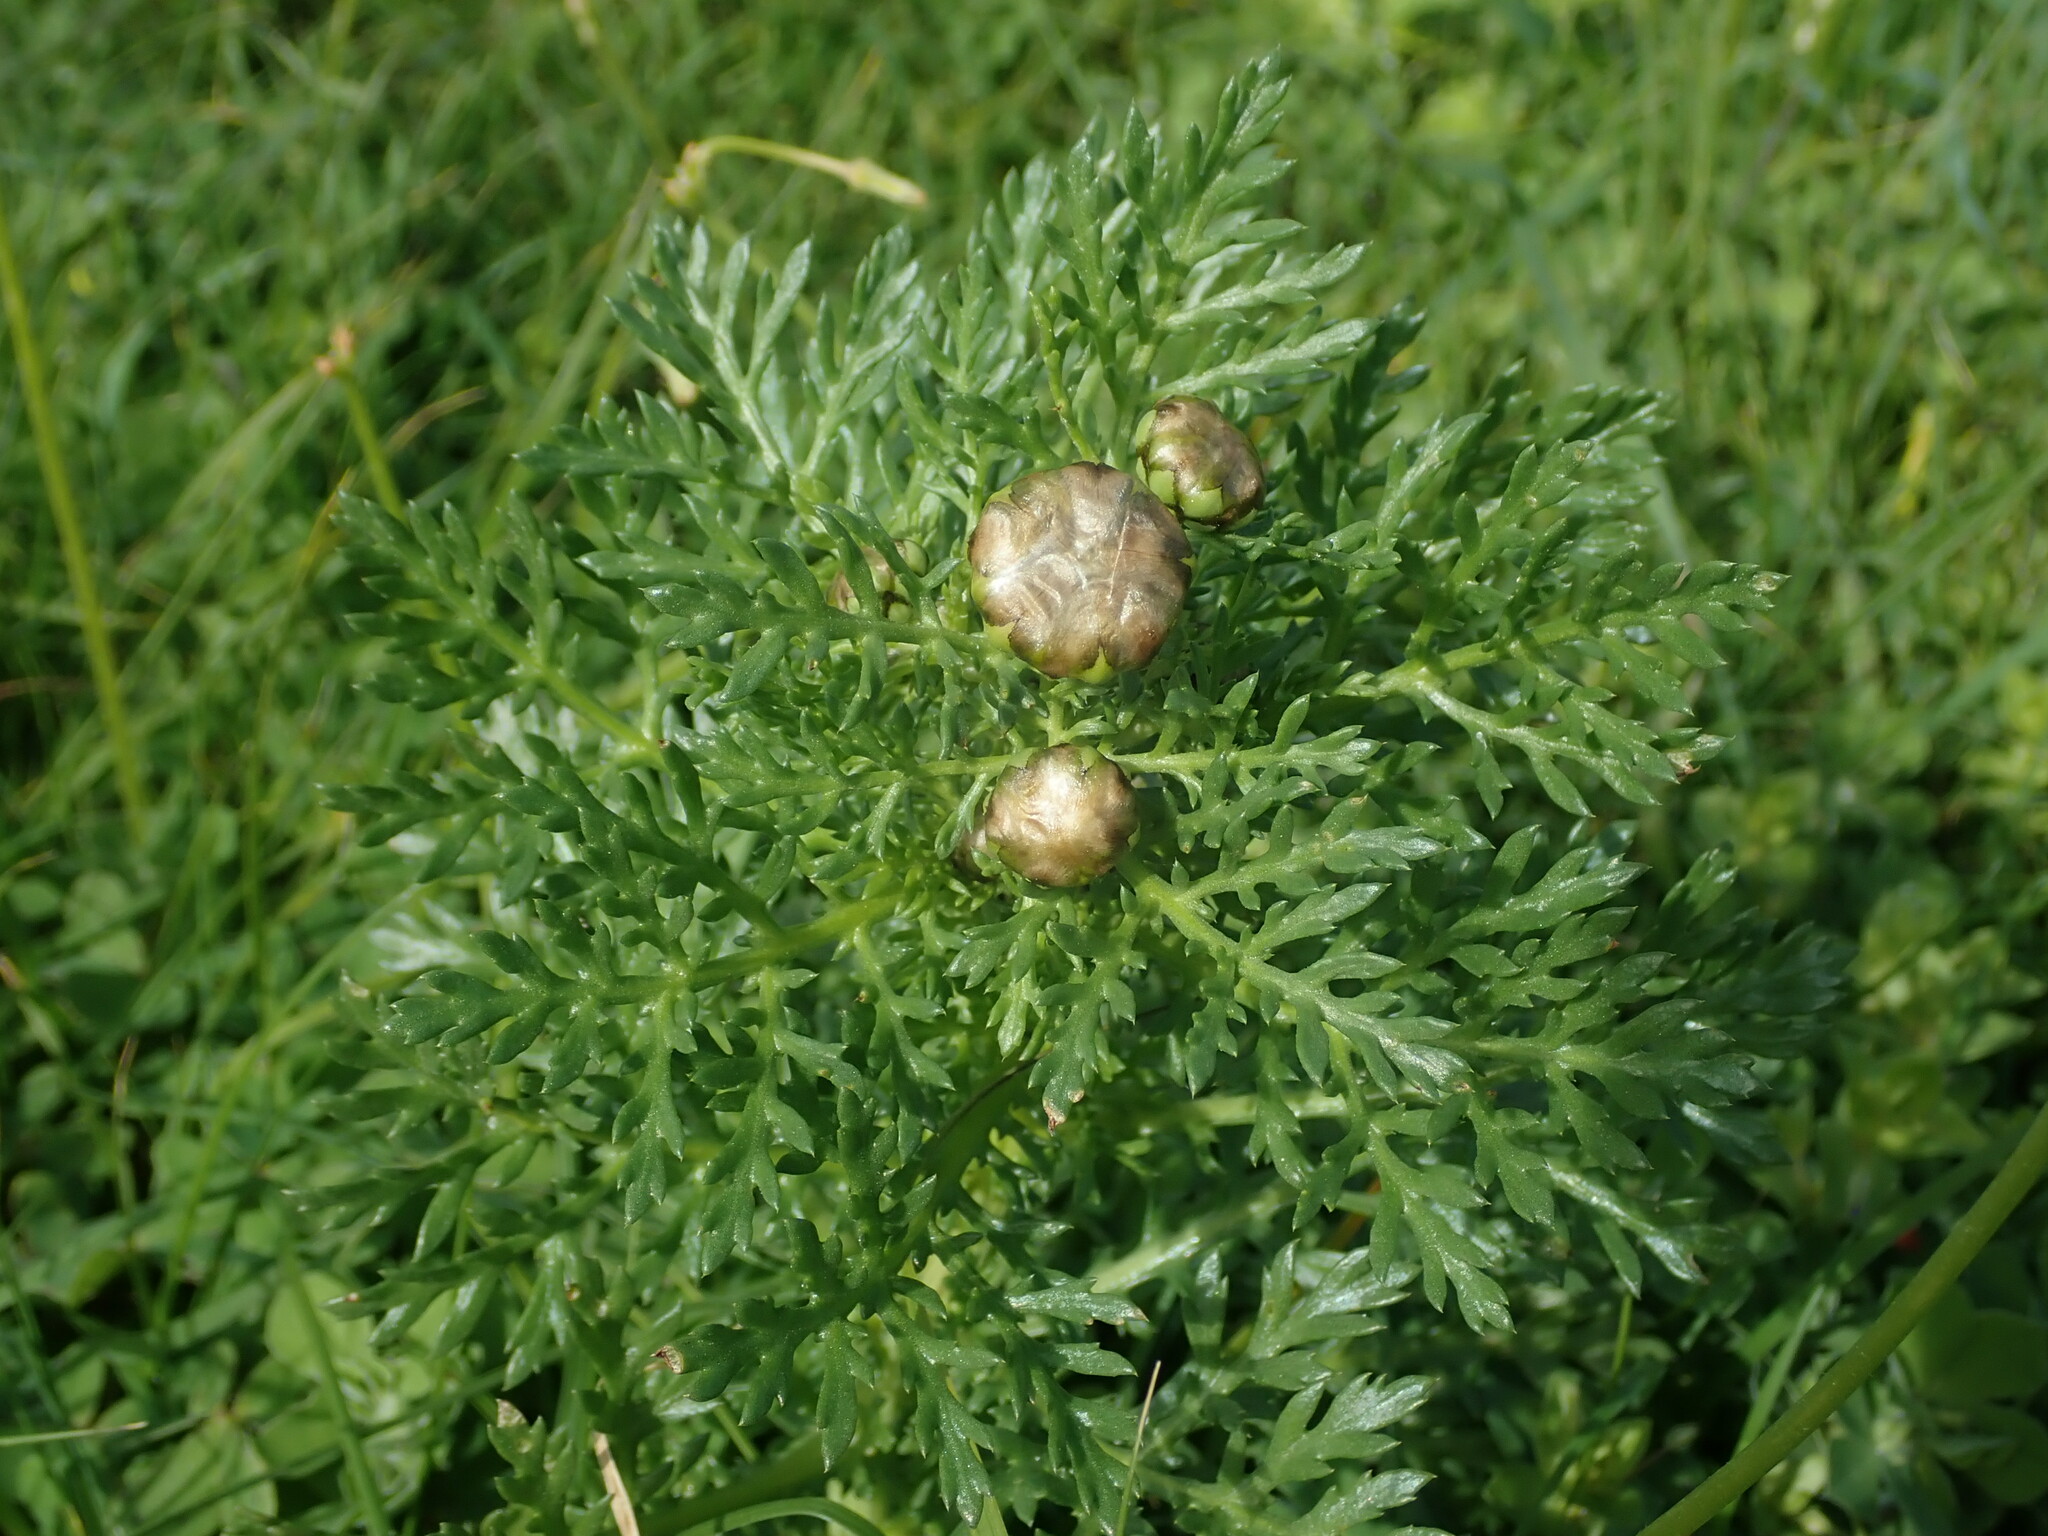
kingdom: Plantae
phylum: Tracheophyta
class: Magnoliopsida
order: Asterales
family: Asteraceae
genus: Glebionis
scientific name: Glebionis coronaria
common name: Crowndaisy
